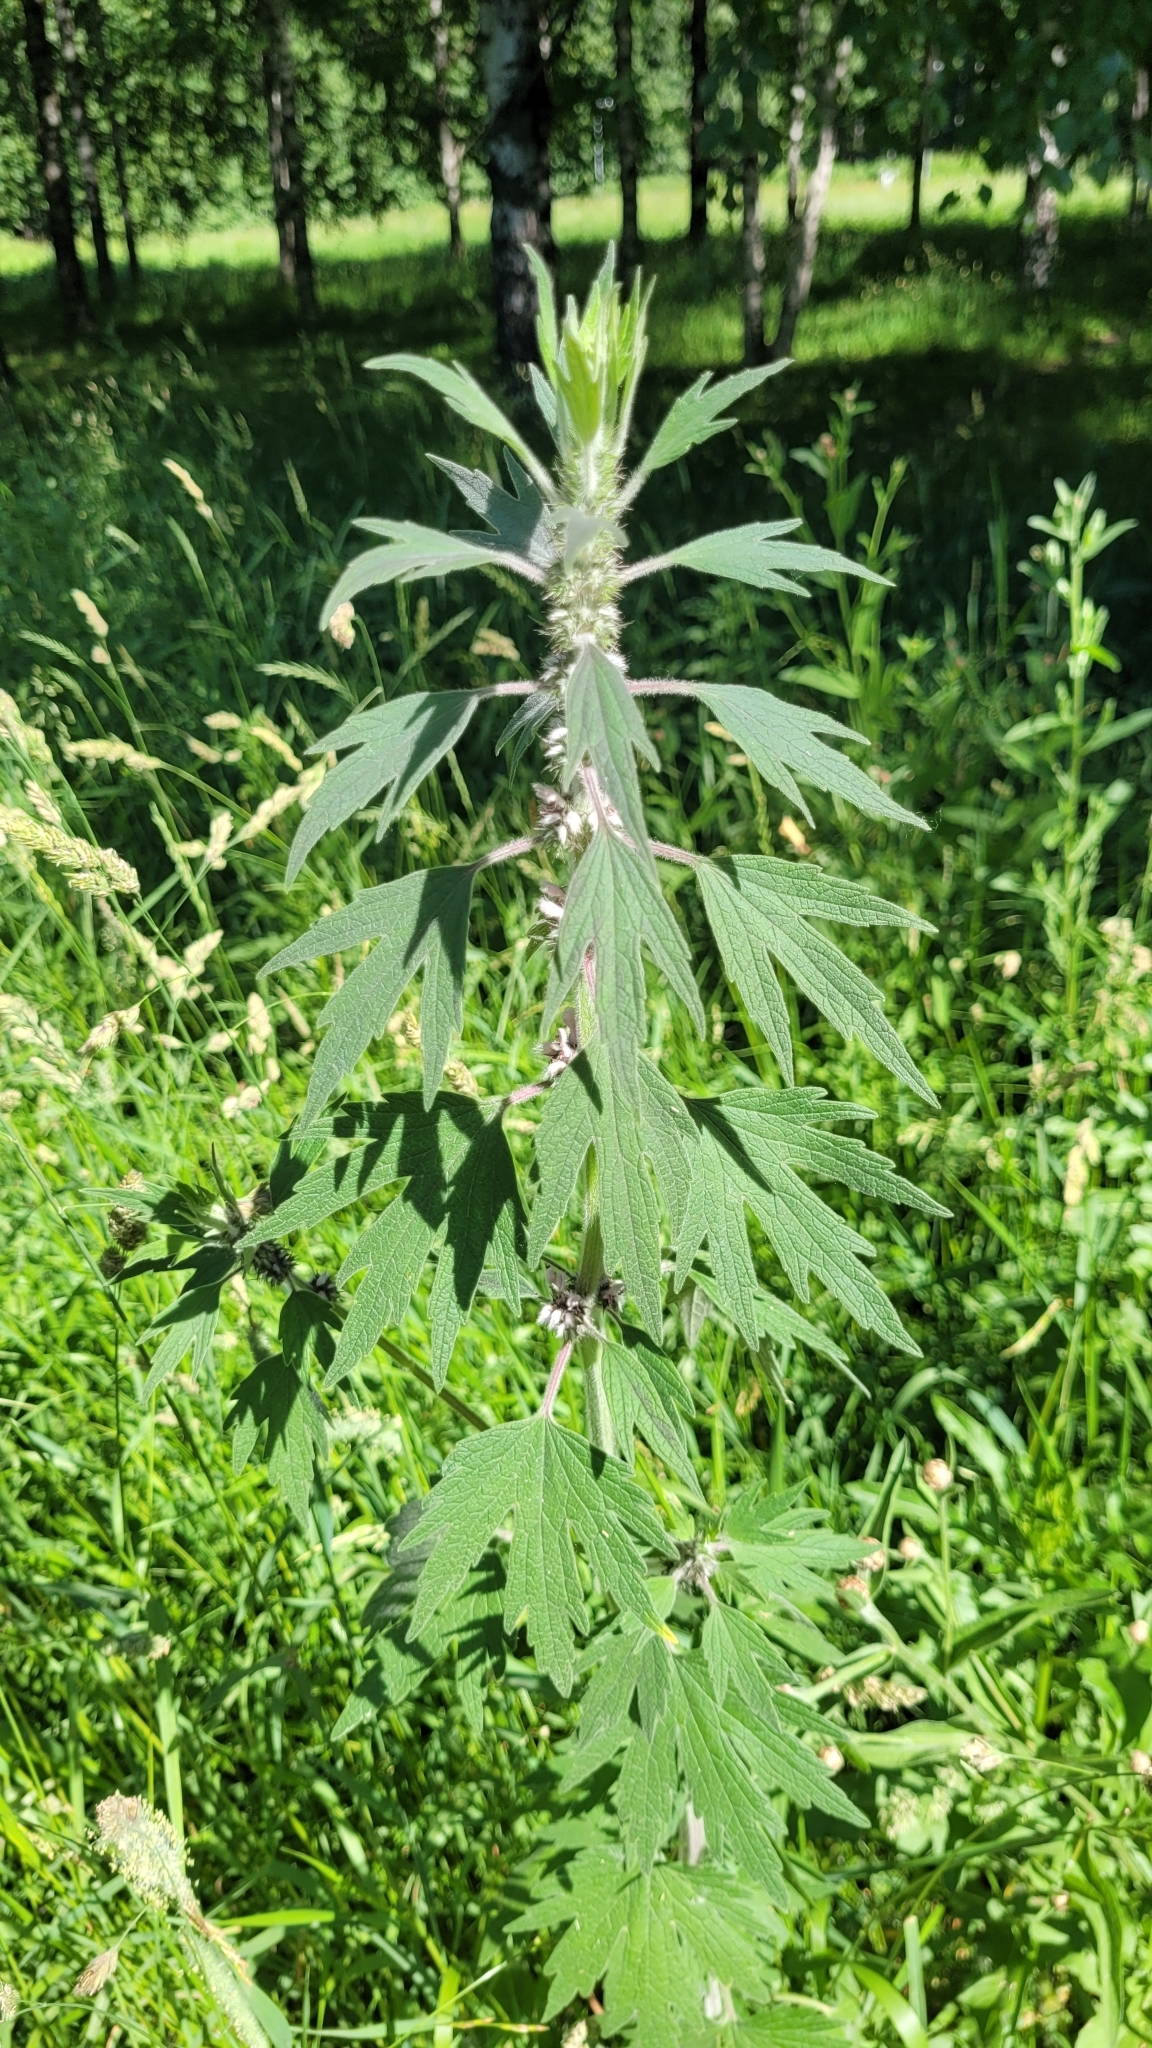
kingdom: Plantae
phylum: Tracheophyta
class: Magnoliopsida
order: Lamiales
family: Lamiaceae
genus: Leonurus
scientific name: Leonurus quinquelobatus
